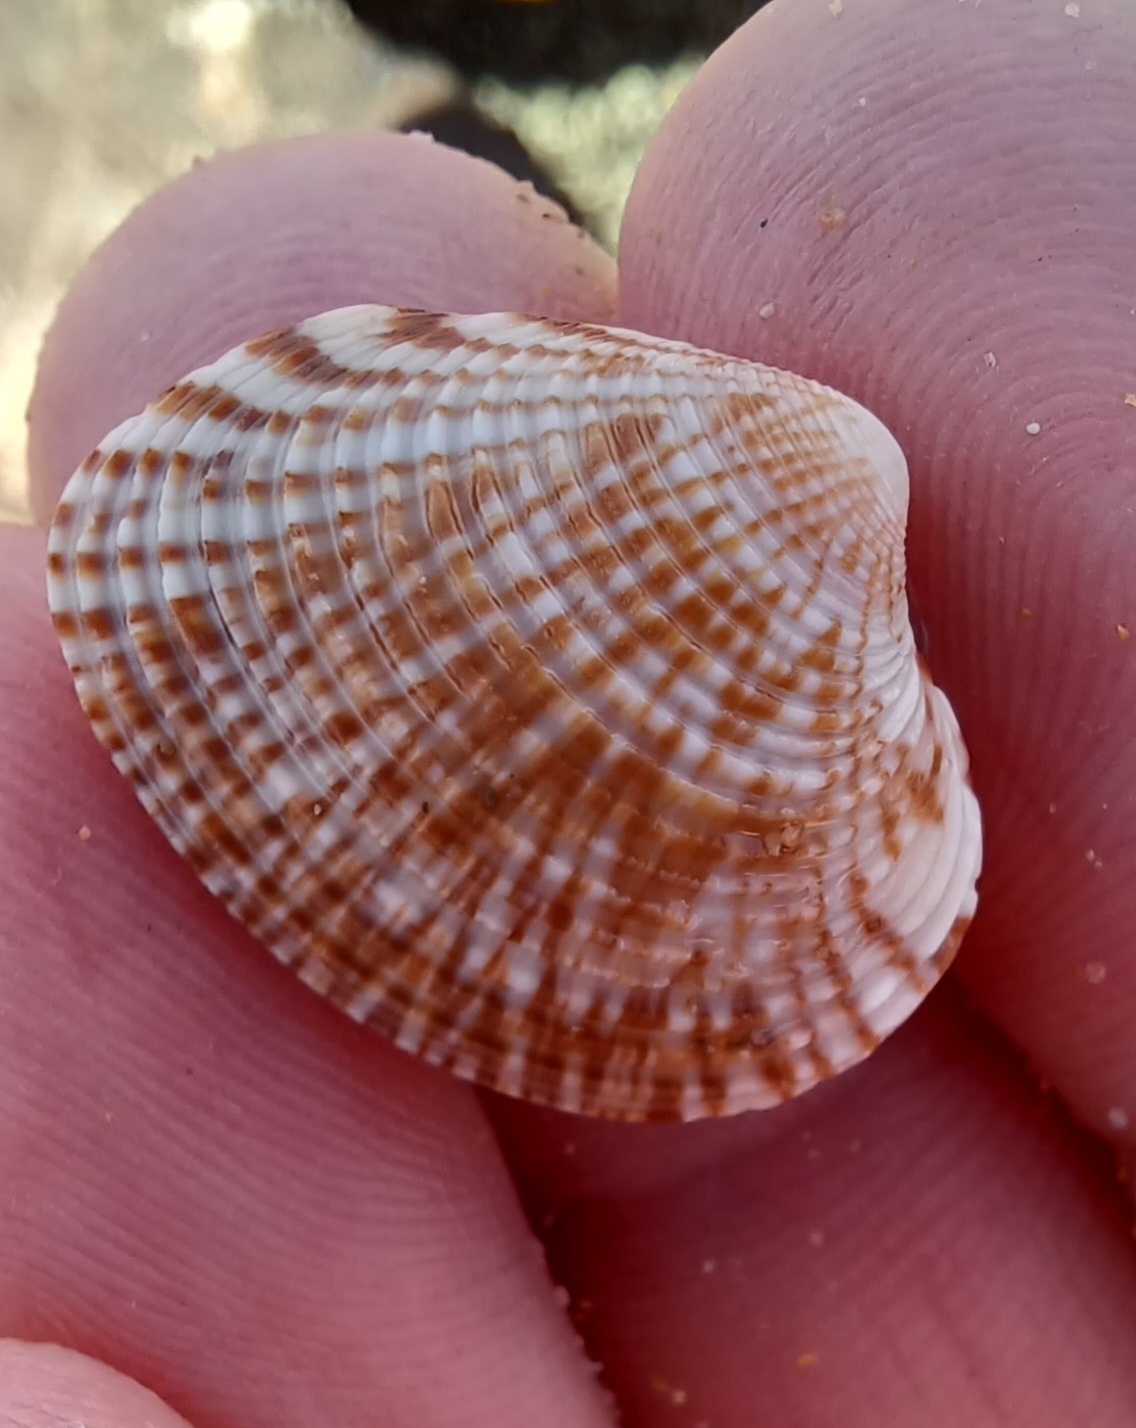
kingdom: Animalia
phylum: Mollusca
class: Bivalvia
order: Venerida
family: Veneridae
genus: Tawera
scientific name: Tawera gallinula
